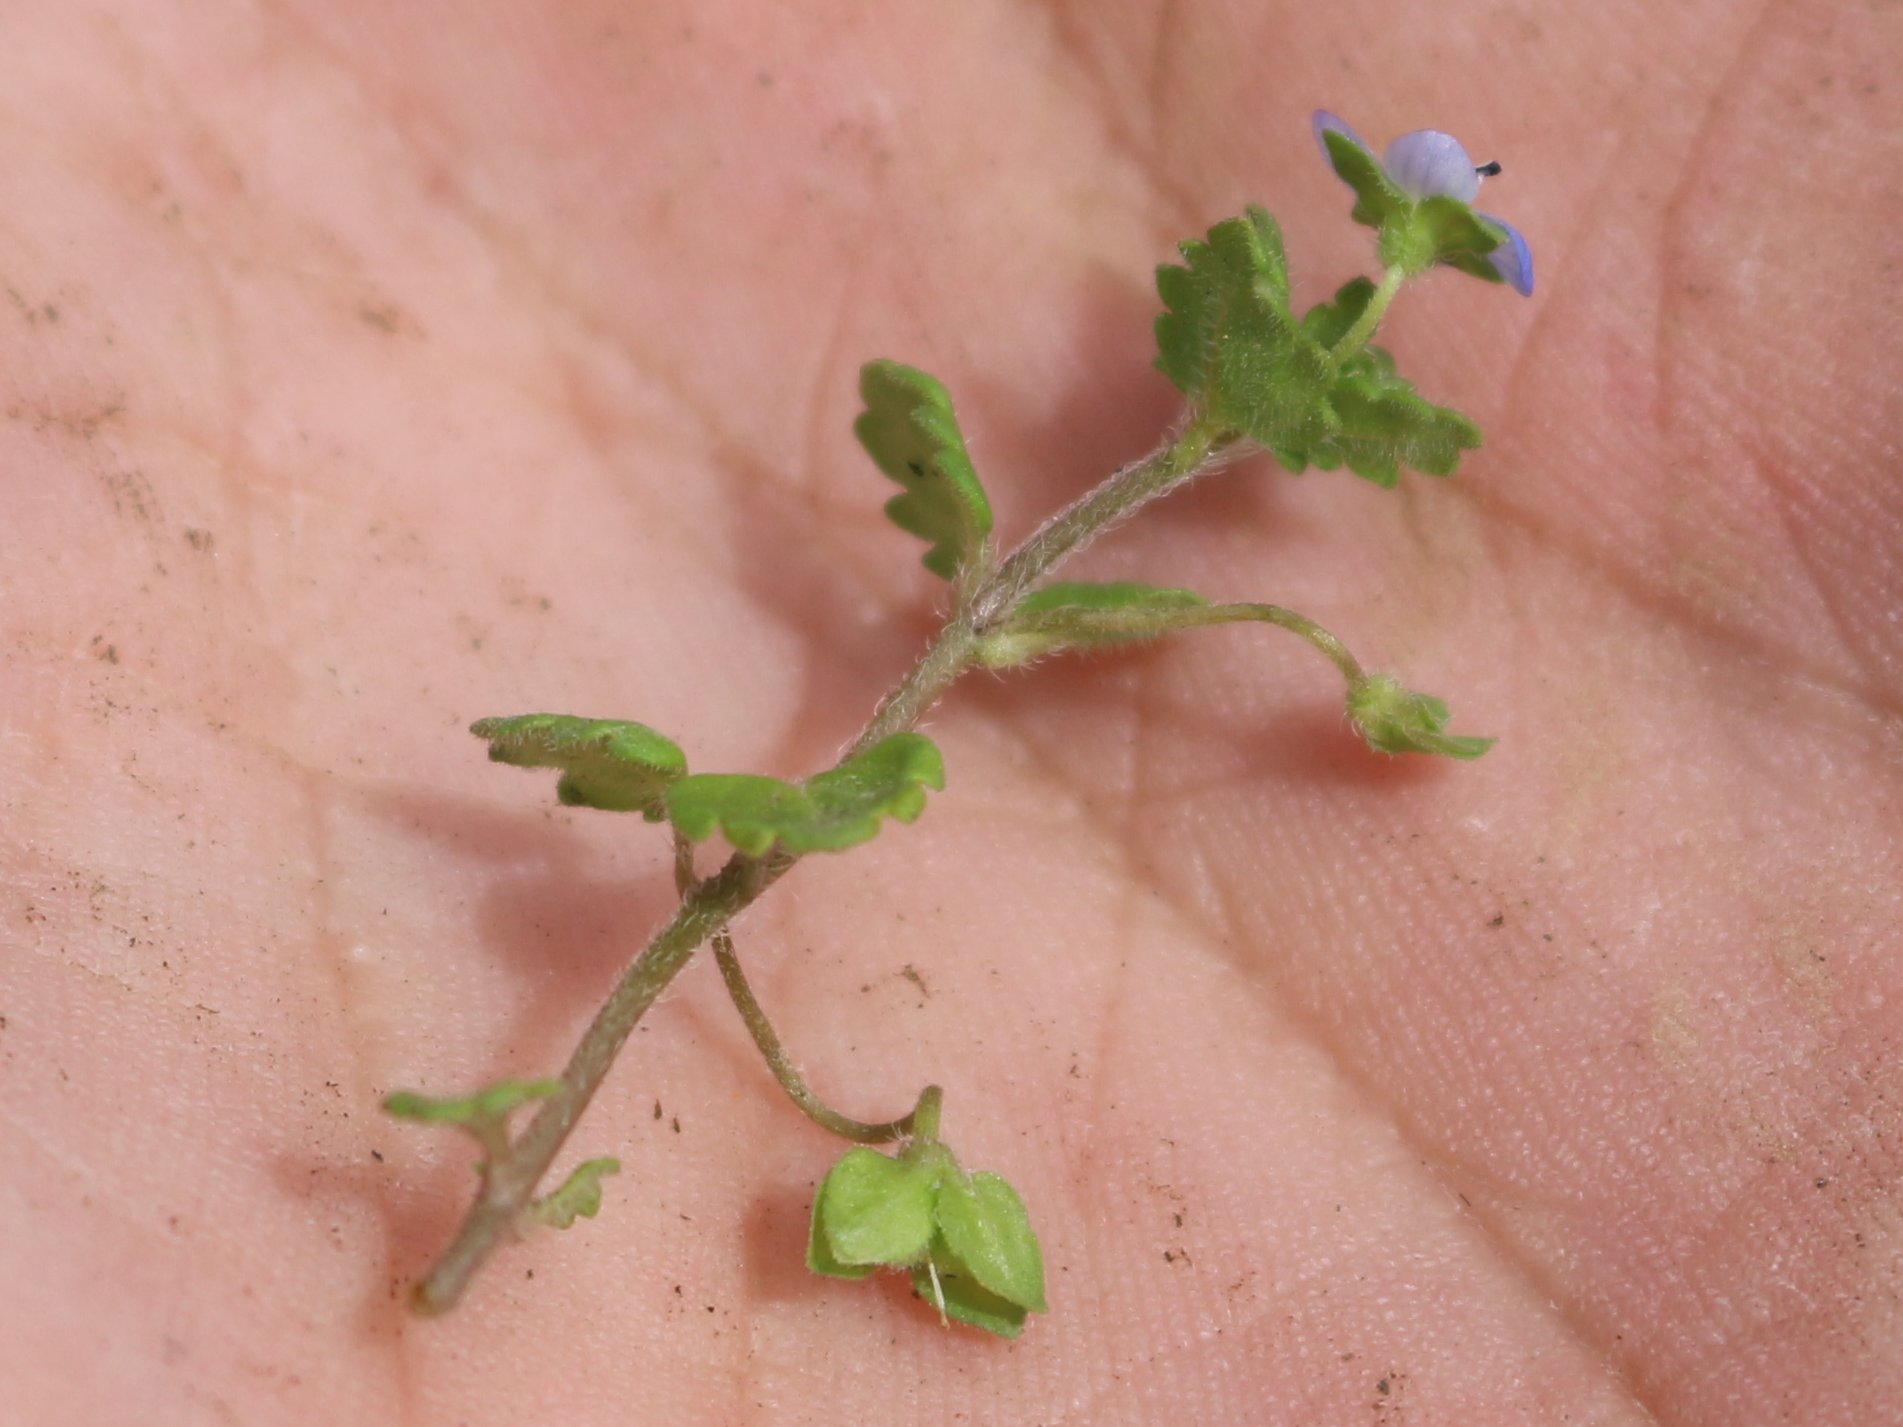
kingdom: Plantae
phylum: Tracheophyta
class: Magnoliopsida
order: Lamiales
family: Plantaginaceae
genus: Veronica
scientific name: Veronica polita
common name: Grey field-speedwell
